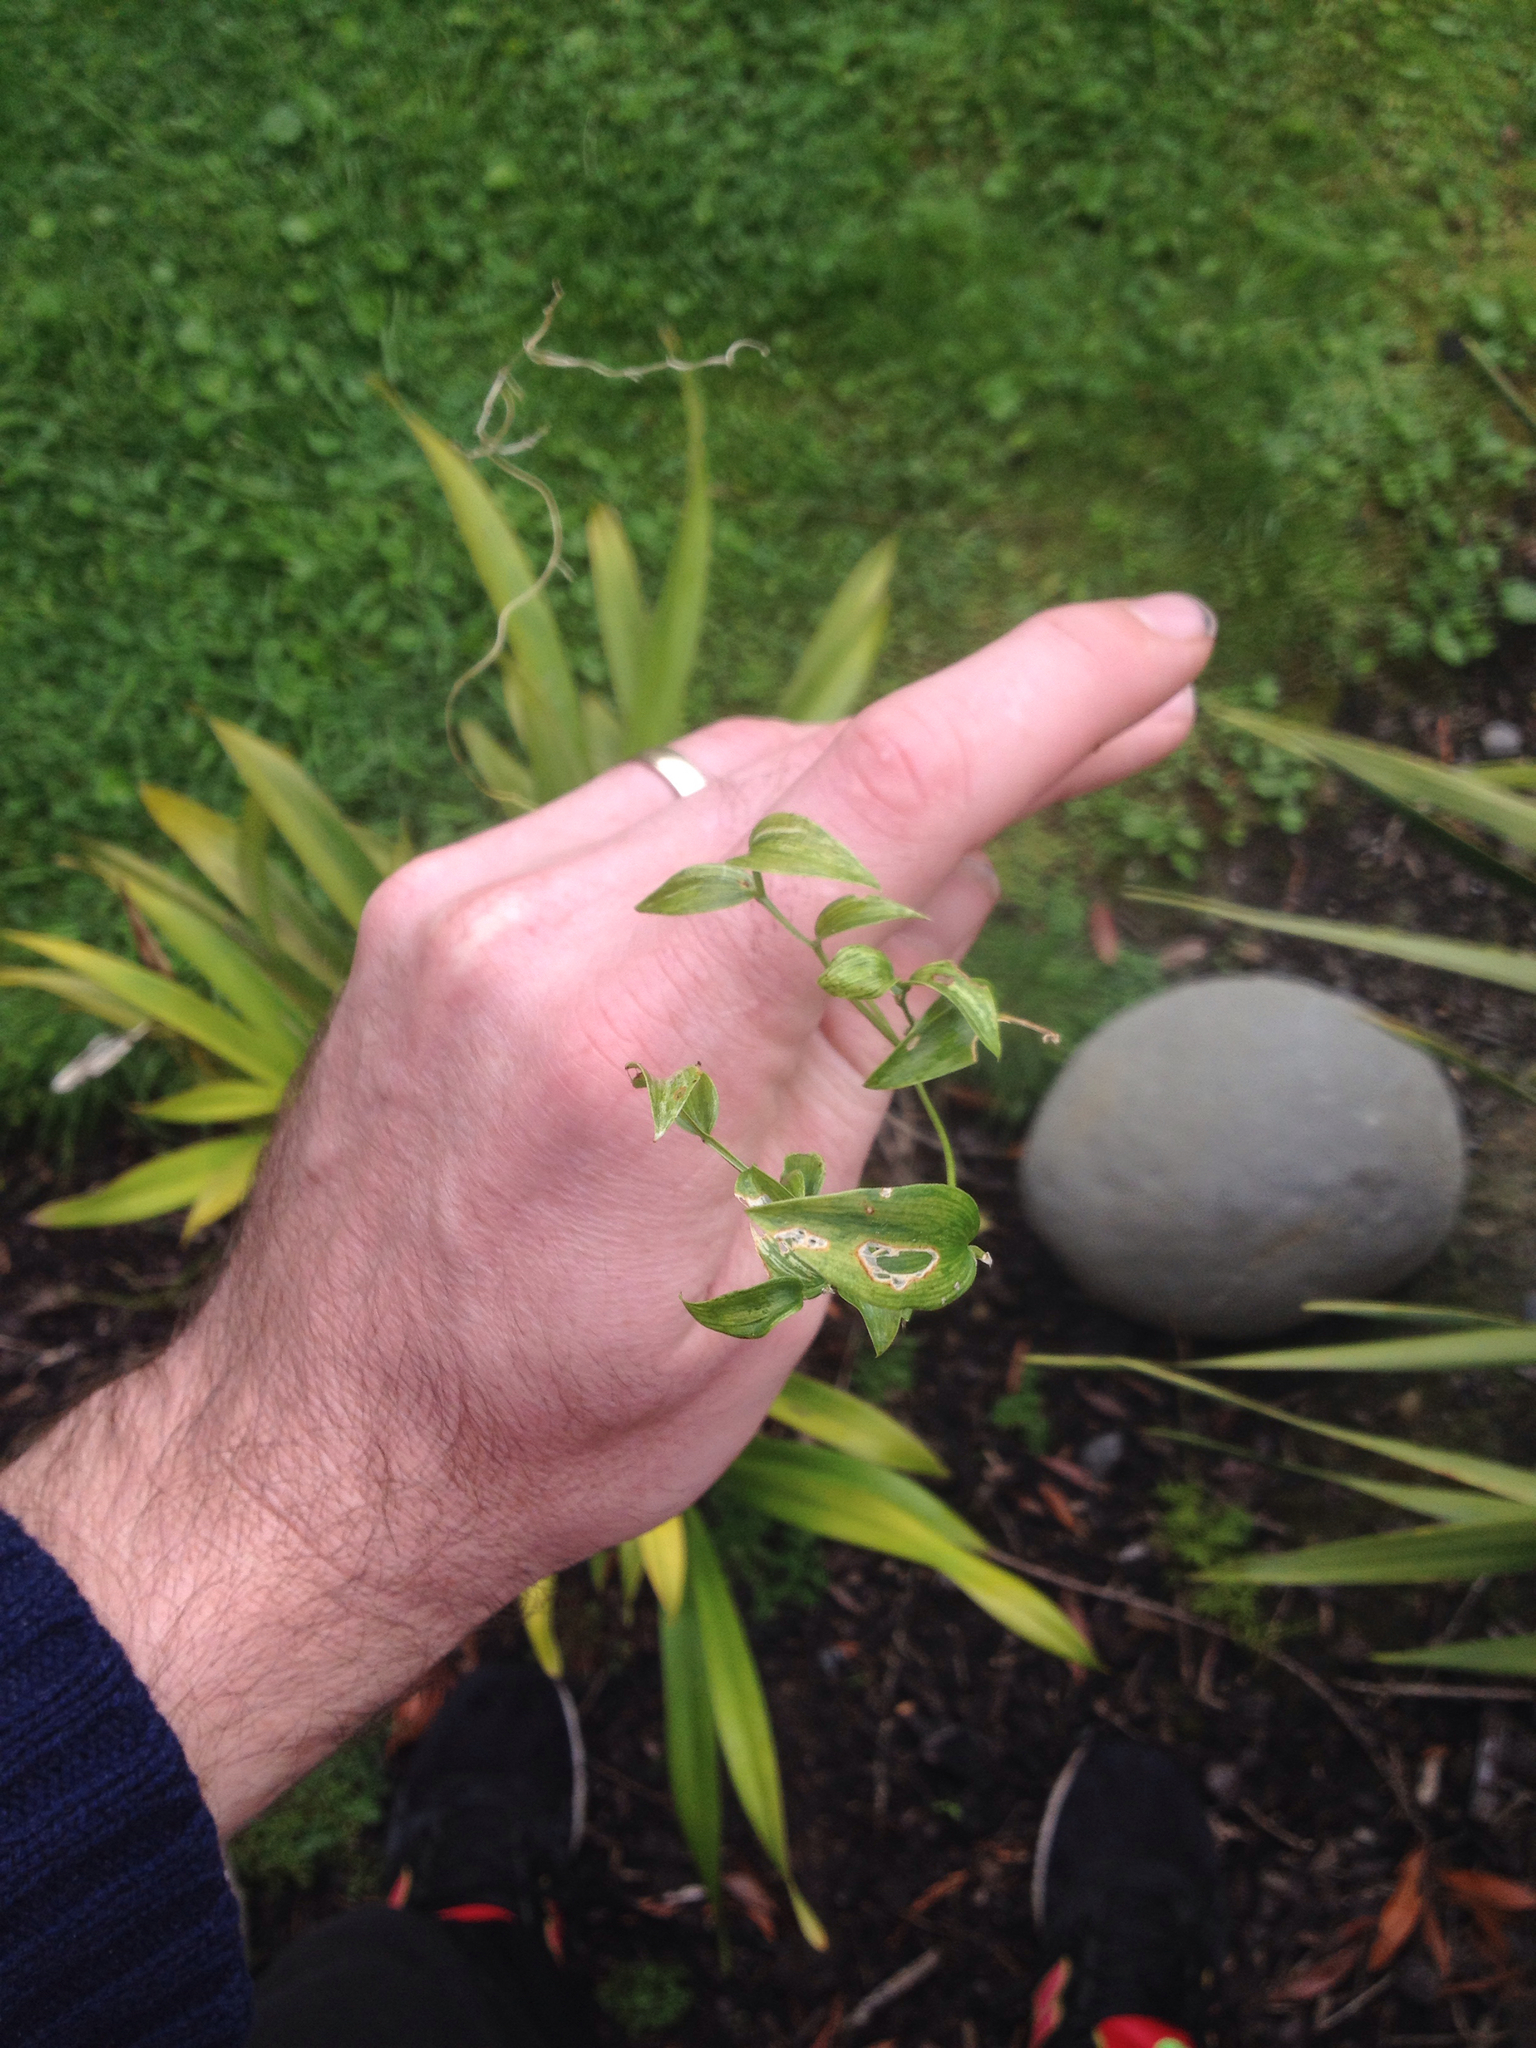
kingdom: Plantae
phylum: Tracheophyta
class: Liliopsida
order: Asparagales
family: Asparagaceae
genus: Asparagus
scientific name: Asparagus asparagoides
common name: African asparagus fern
